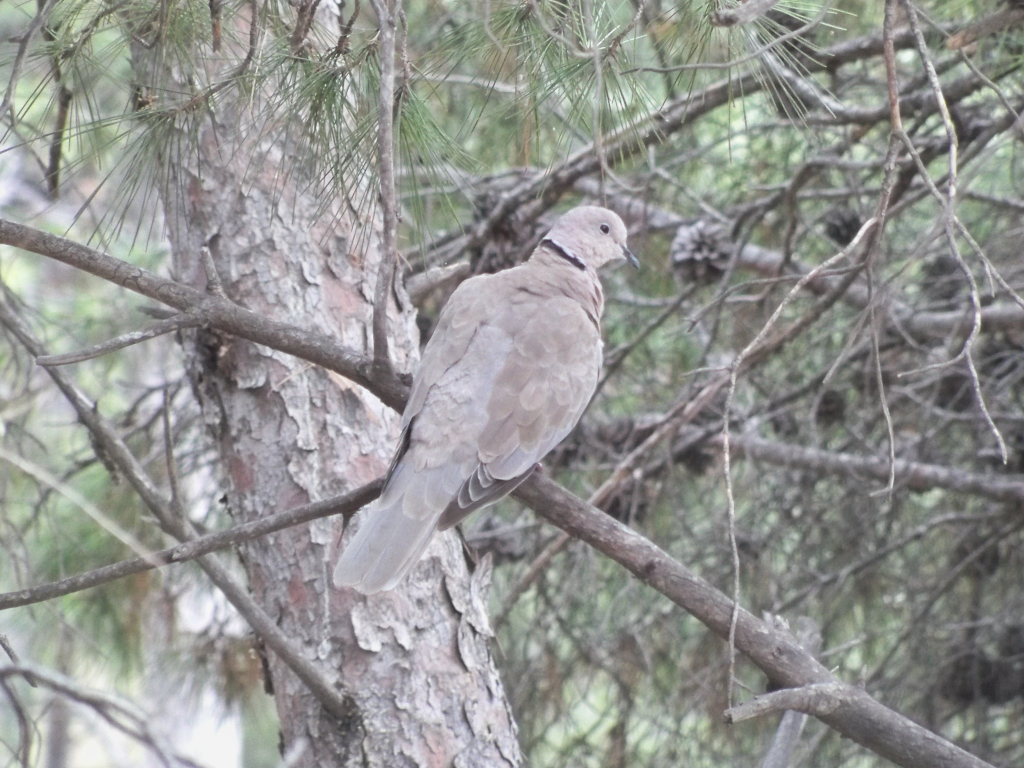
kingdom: Animalia
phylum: Chordata
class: Aves
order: Columbiformes
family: Columbidae
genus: Streptopelia
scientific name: Streptopelia decaocto
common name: Eurasian collared dove
